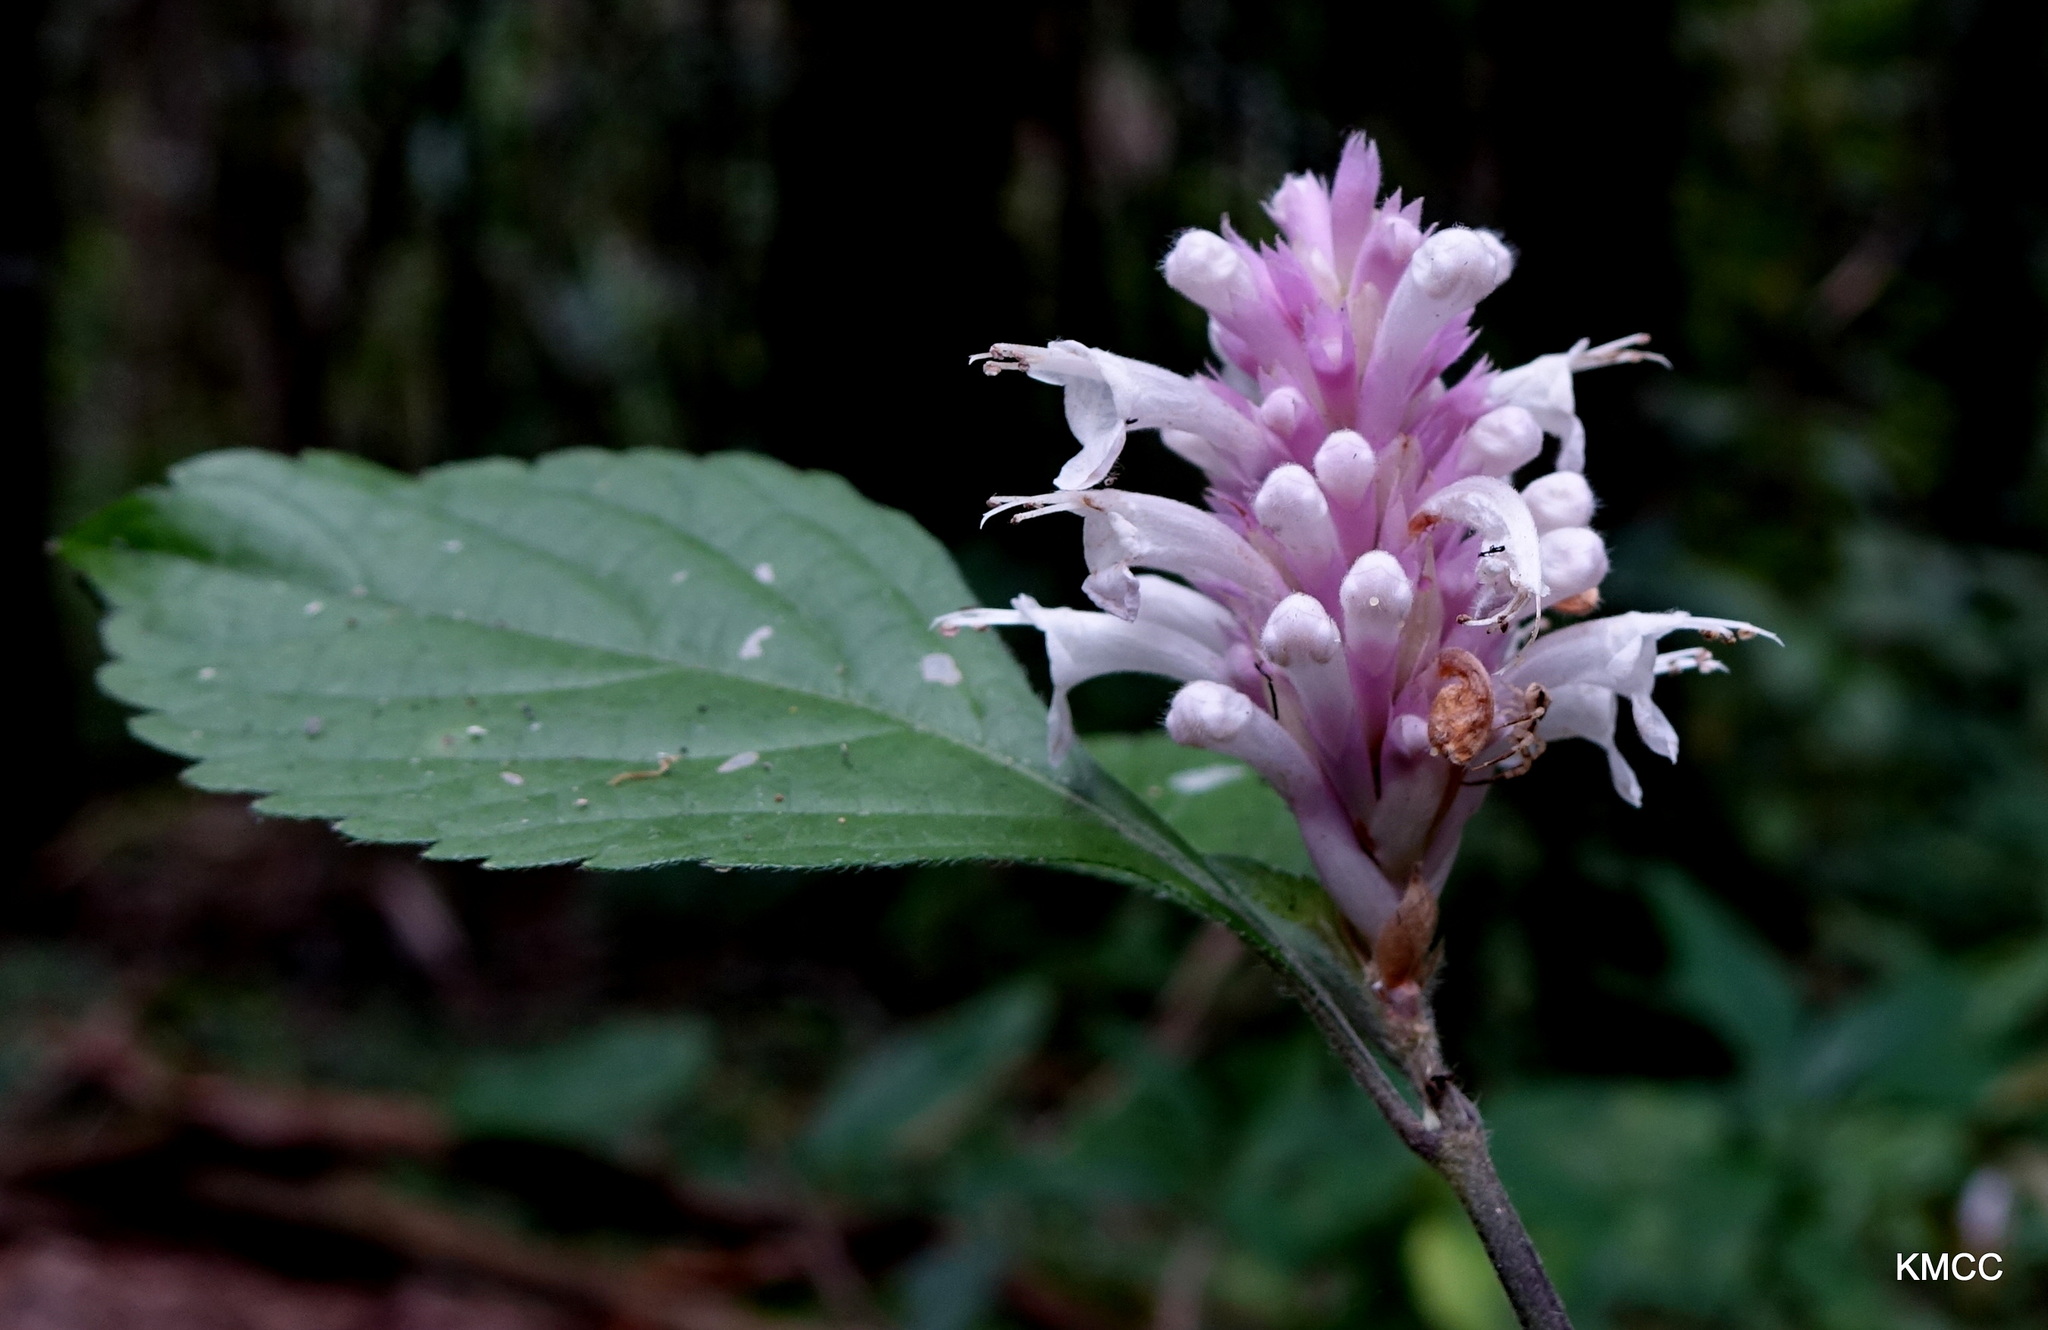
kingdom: Plantae
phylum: Tracheophyta
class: Magnoliopsida
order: Lamiales
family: Lamiaceae
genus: Achyrospermum
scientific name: Achyrospermum fruticosum
